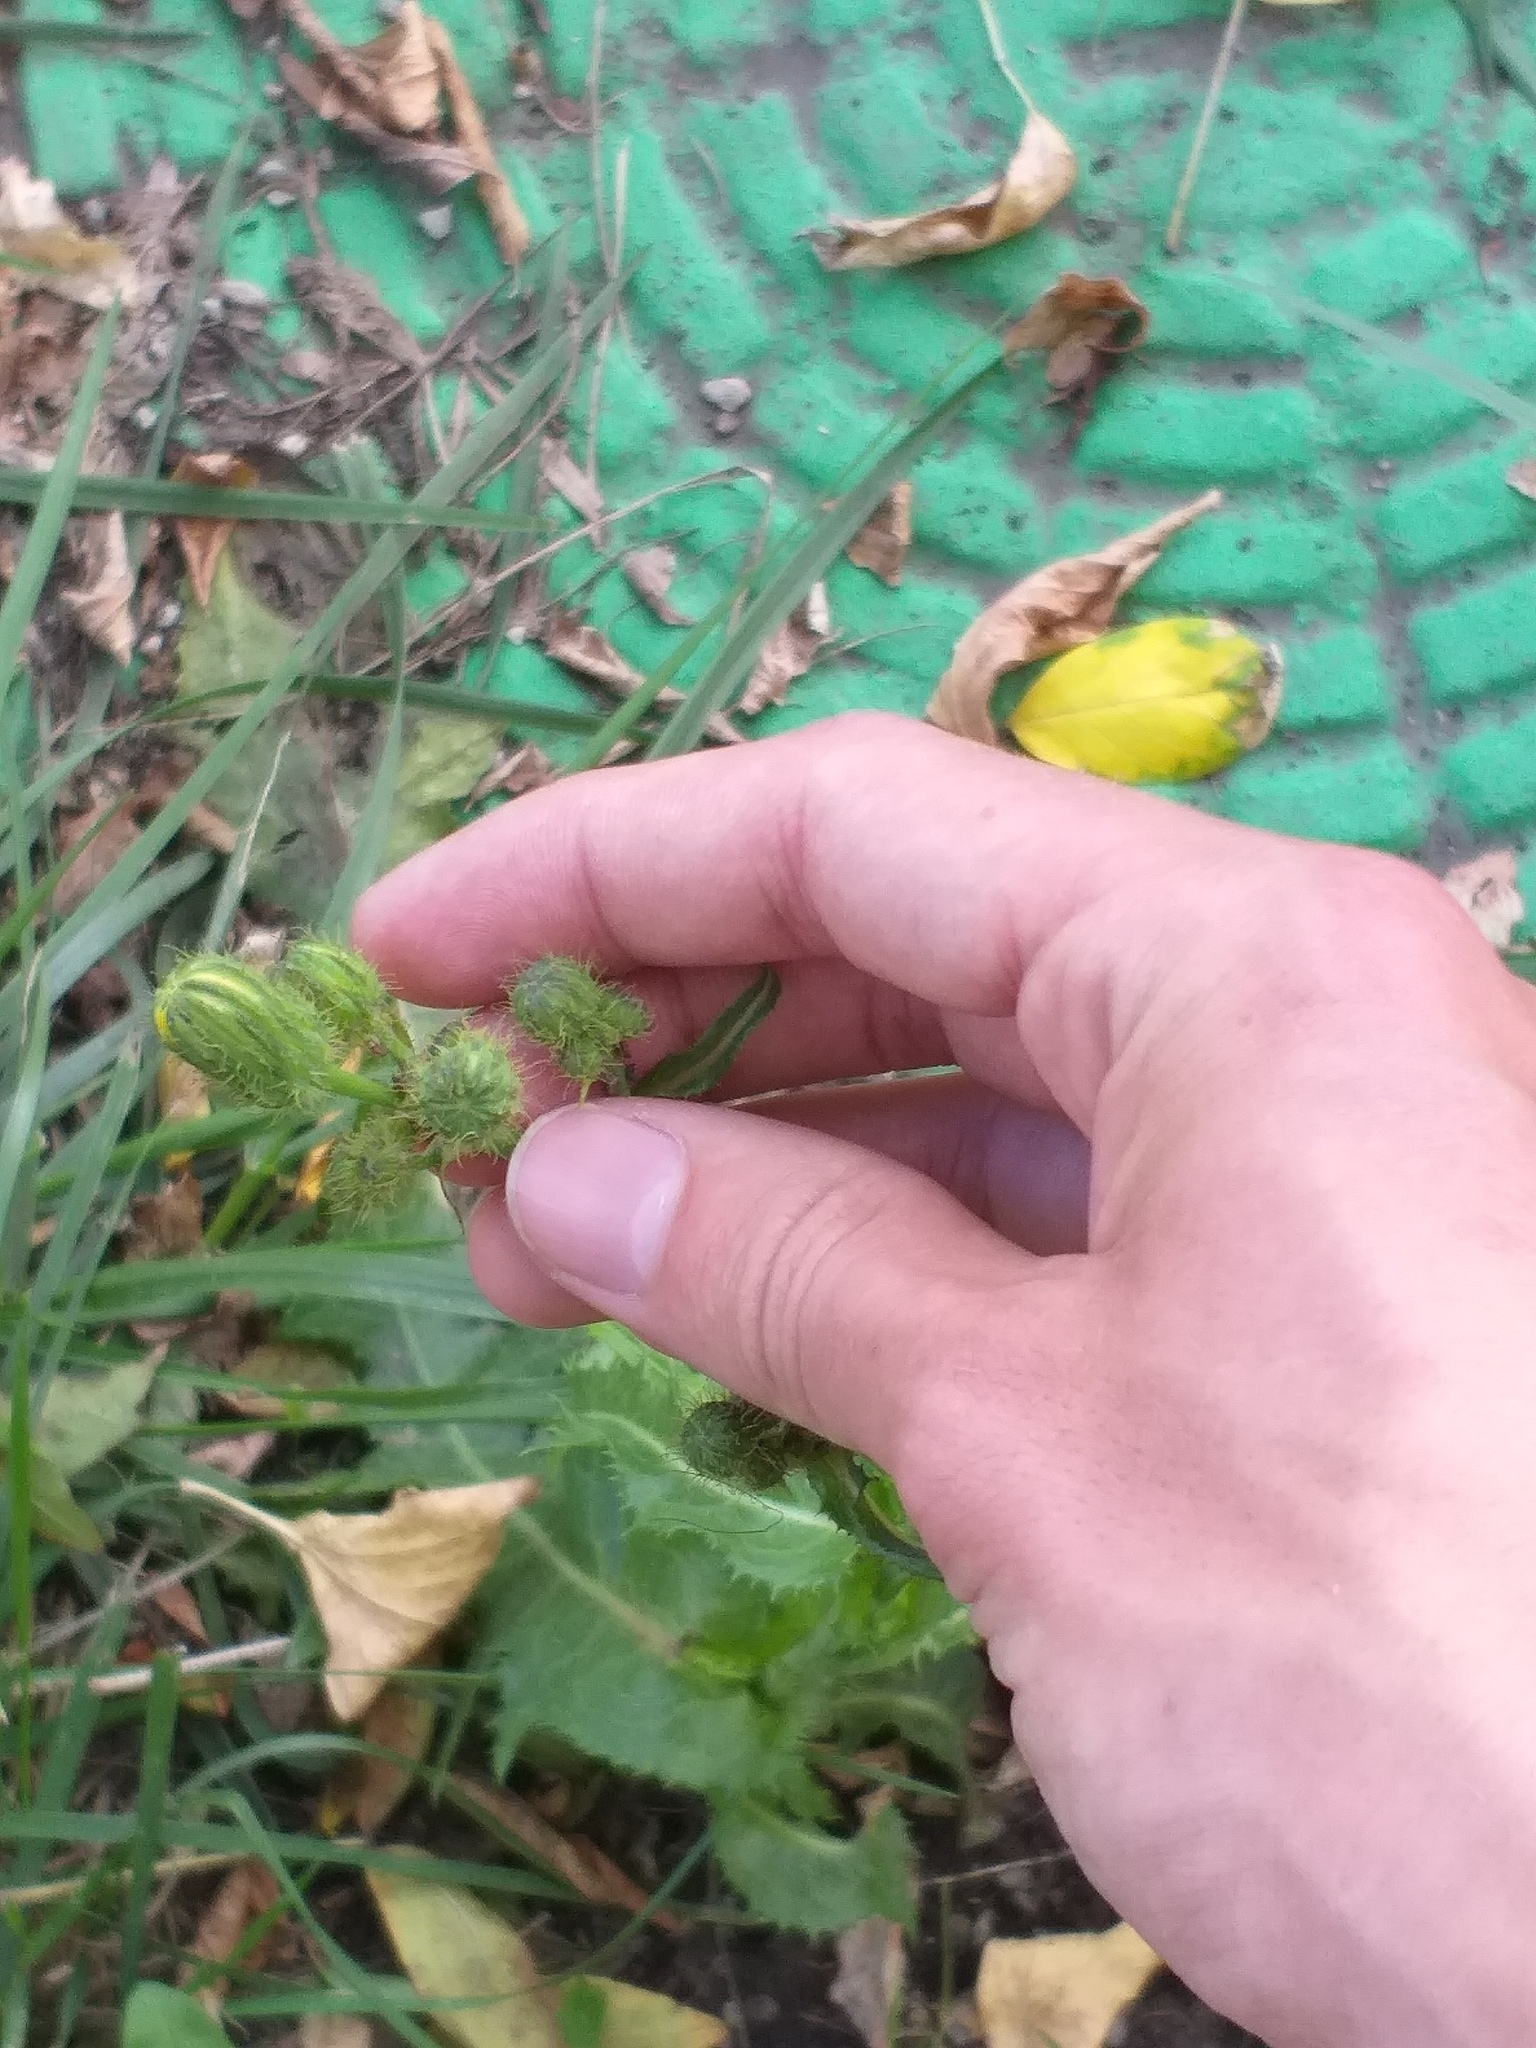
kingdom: Plantae
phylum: Tracheophyta
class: Magnoliopsida
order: Asterales
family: Asteraceae
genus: Sonchus
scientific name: Sonchus arvensis
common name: Perennial sow-thistle
